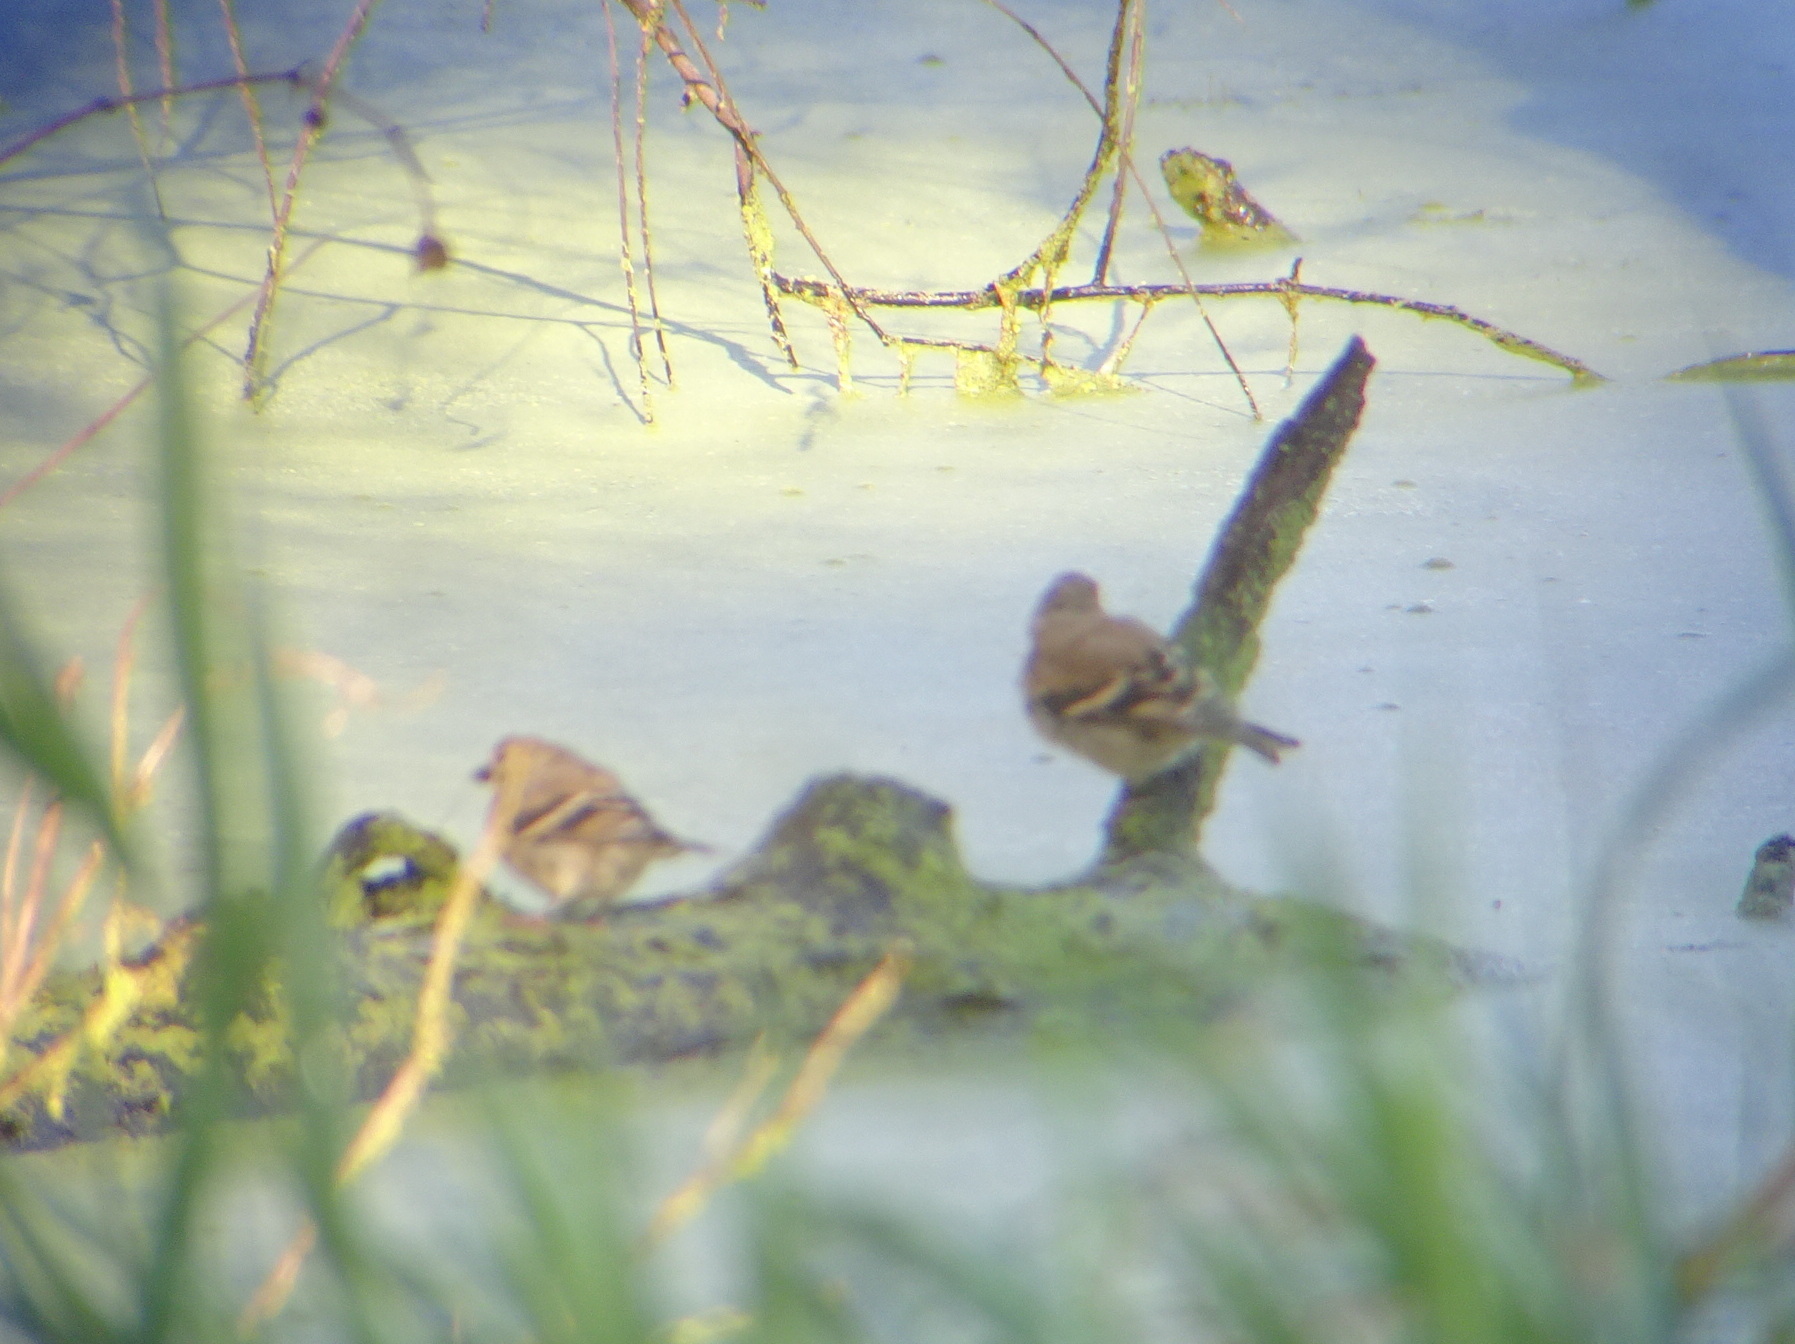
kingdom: Animalia
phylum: Chordata
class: Aves
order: Passeriformes
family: Fringillidae
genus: Spinus
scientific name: Spinus tristis
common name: American goldfinch
